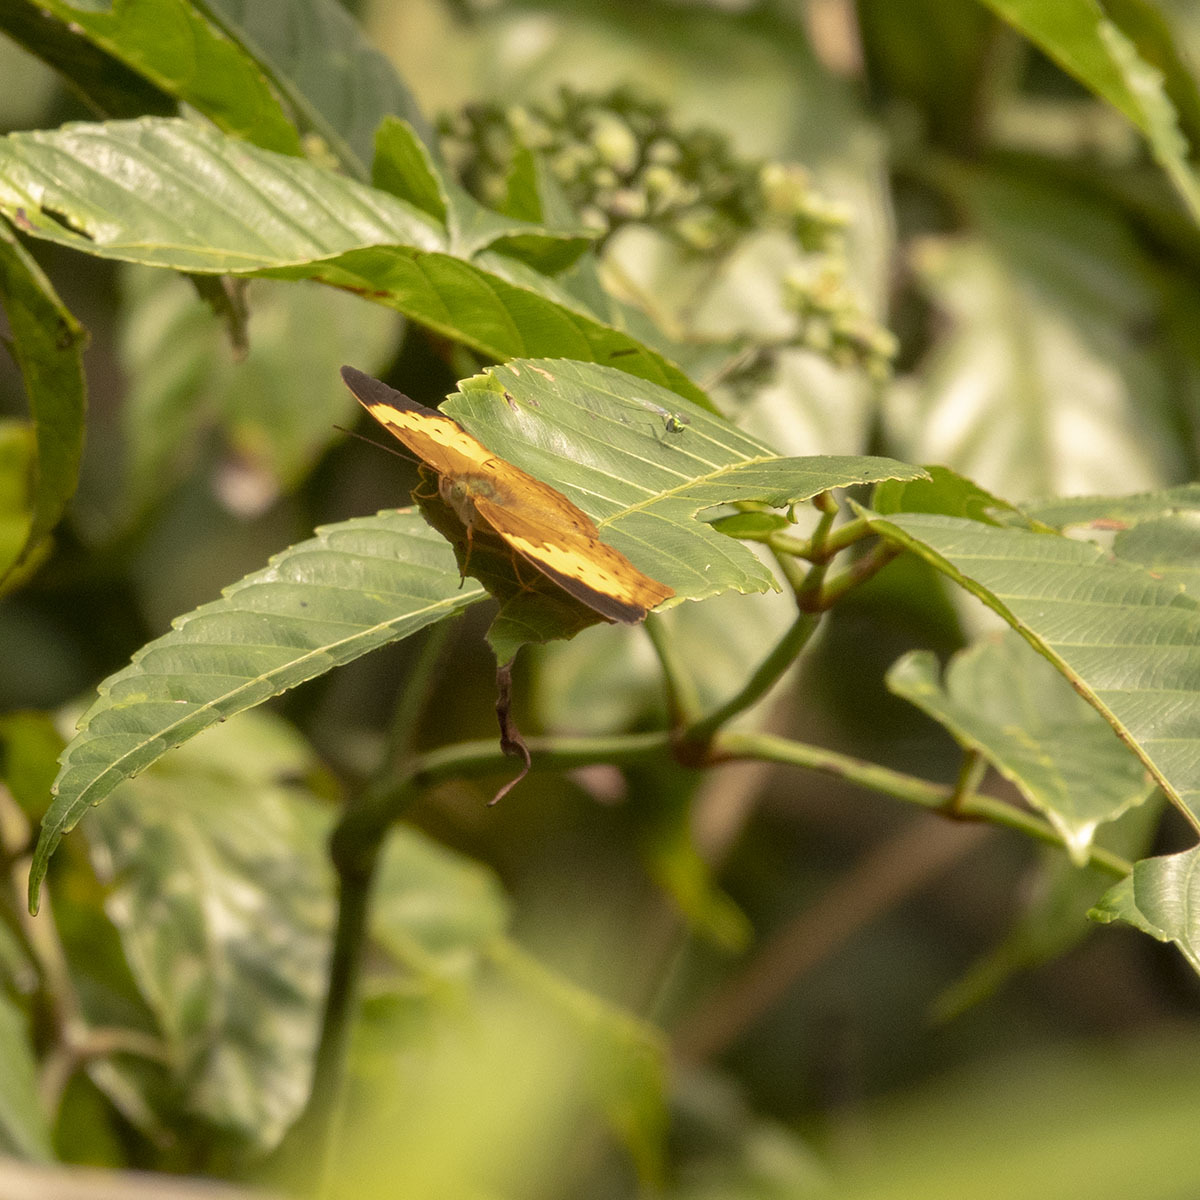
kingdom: Animalia
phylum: Arthropoda
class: Insecta
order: Lepidoptera
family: Nymphalidae
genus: Cupha
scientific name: Cupha erymanthis
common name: Rustic
